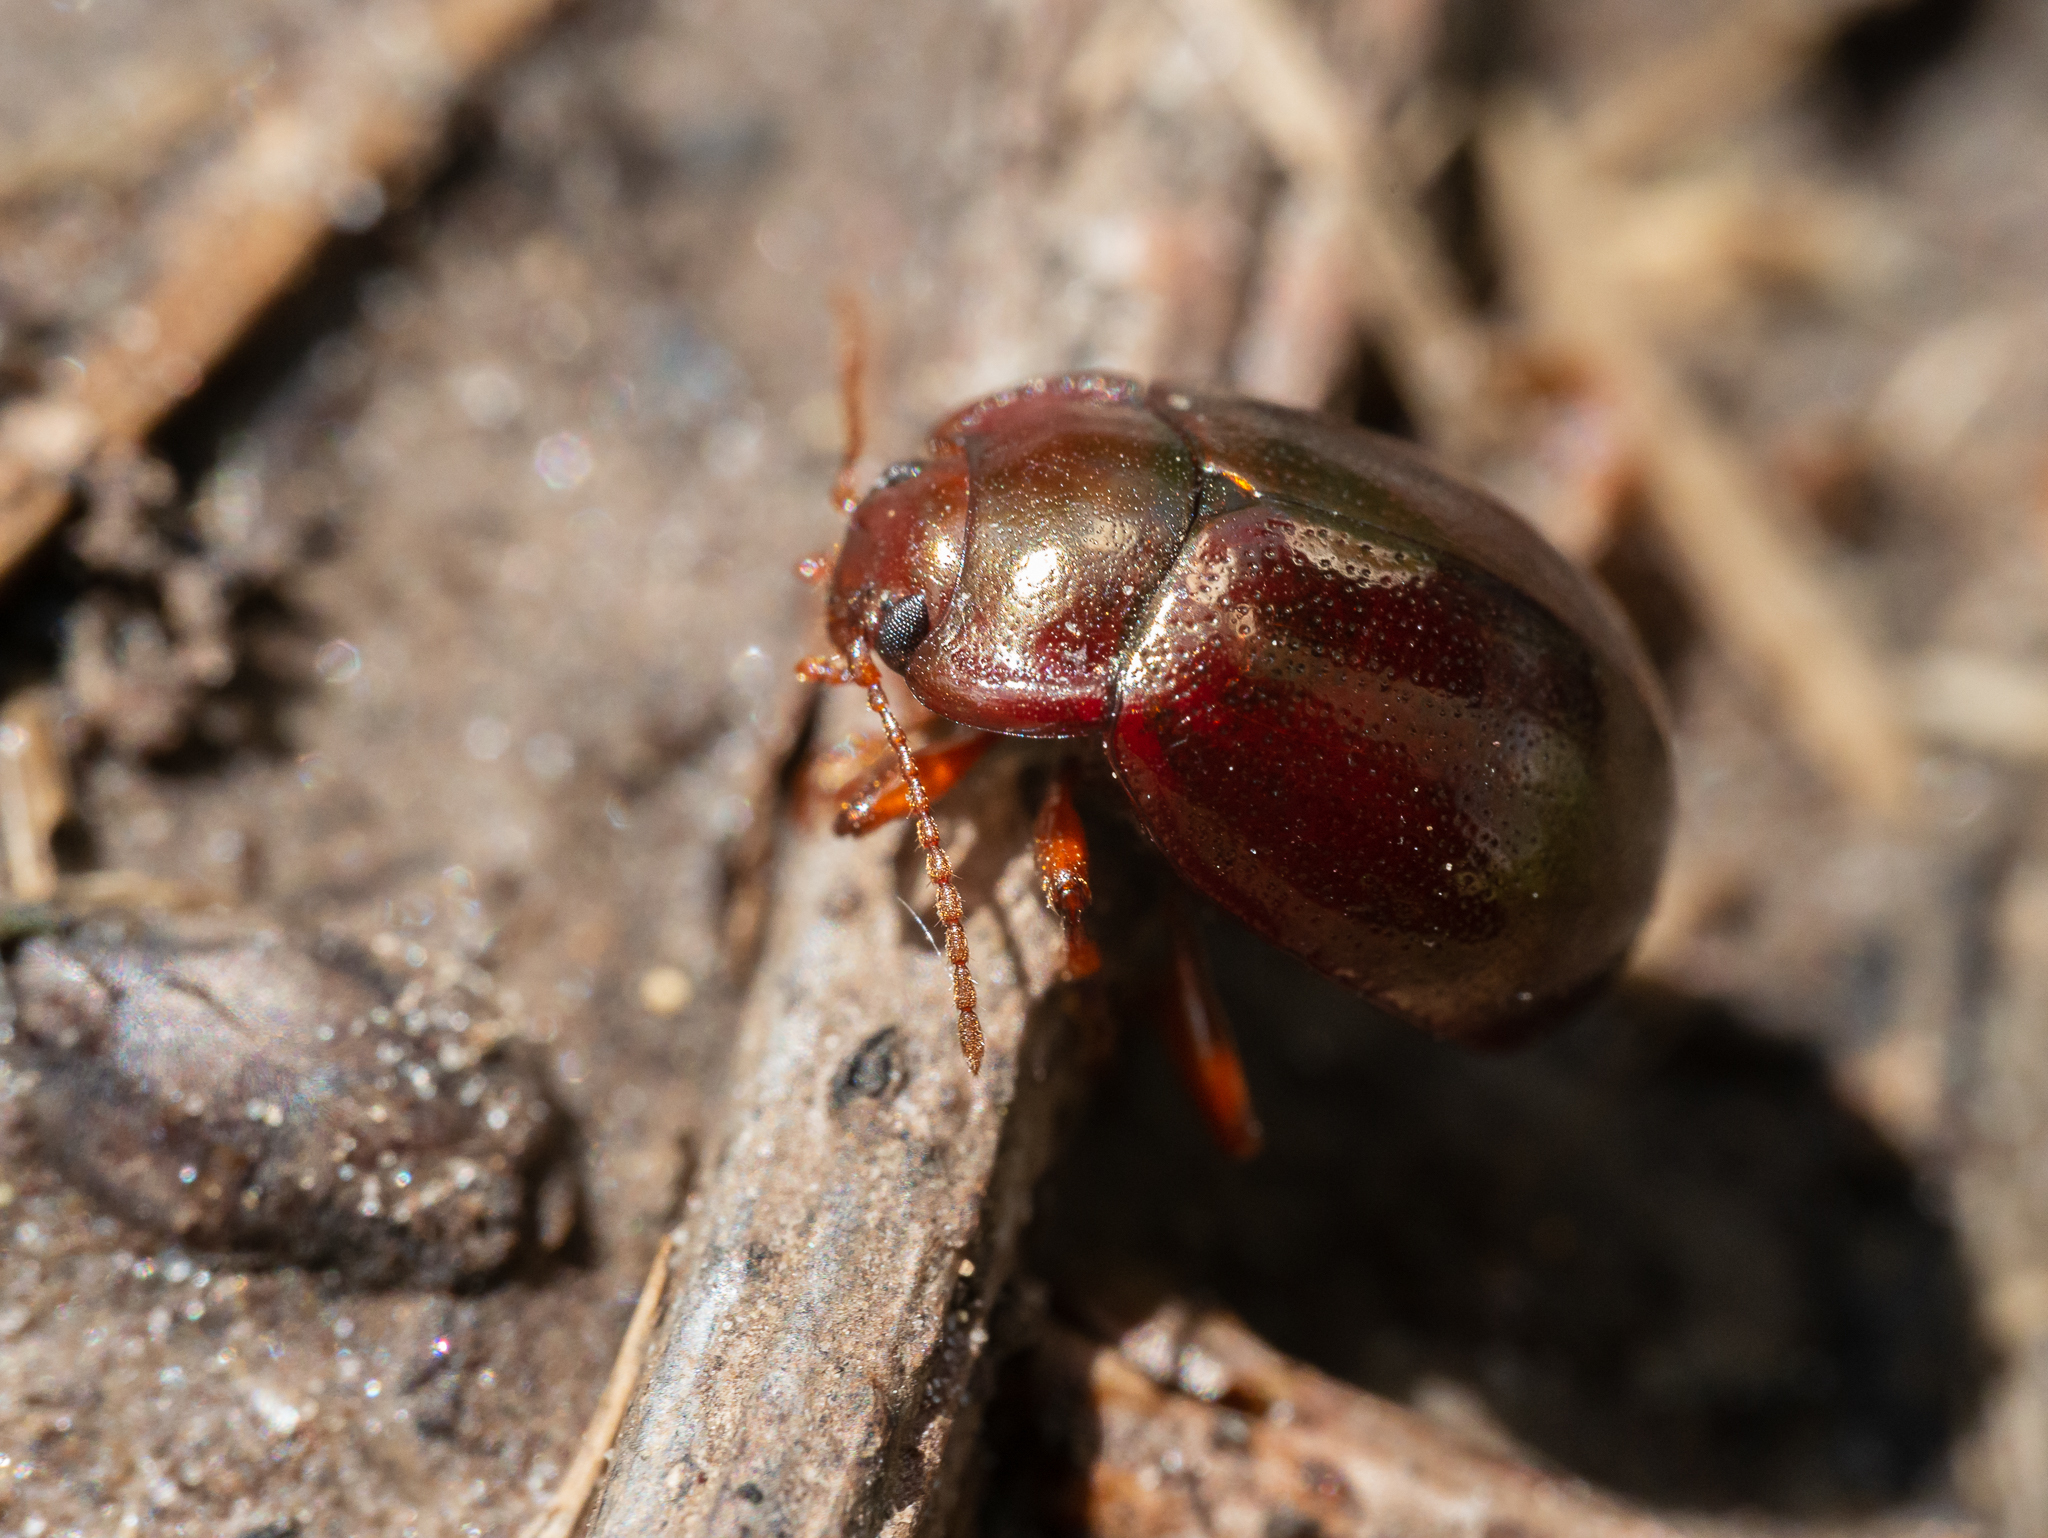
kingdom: Animalia
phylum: Arthropoda
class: Insecta
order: Coleoptera
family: Chrysomelidae
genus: Chrysolina
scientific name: Chrysolina staphylaea
